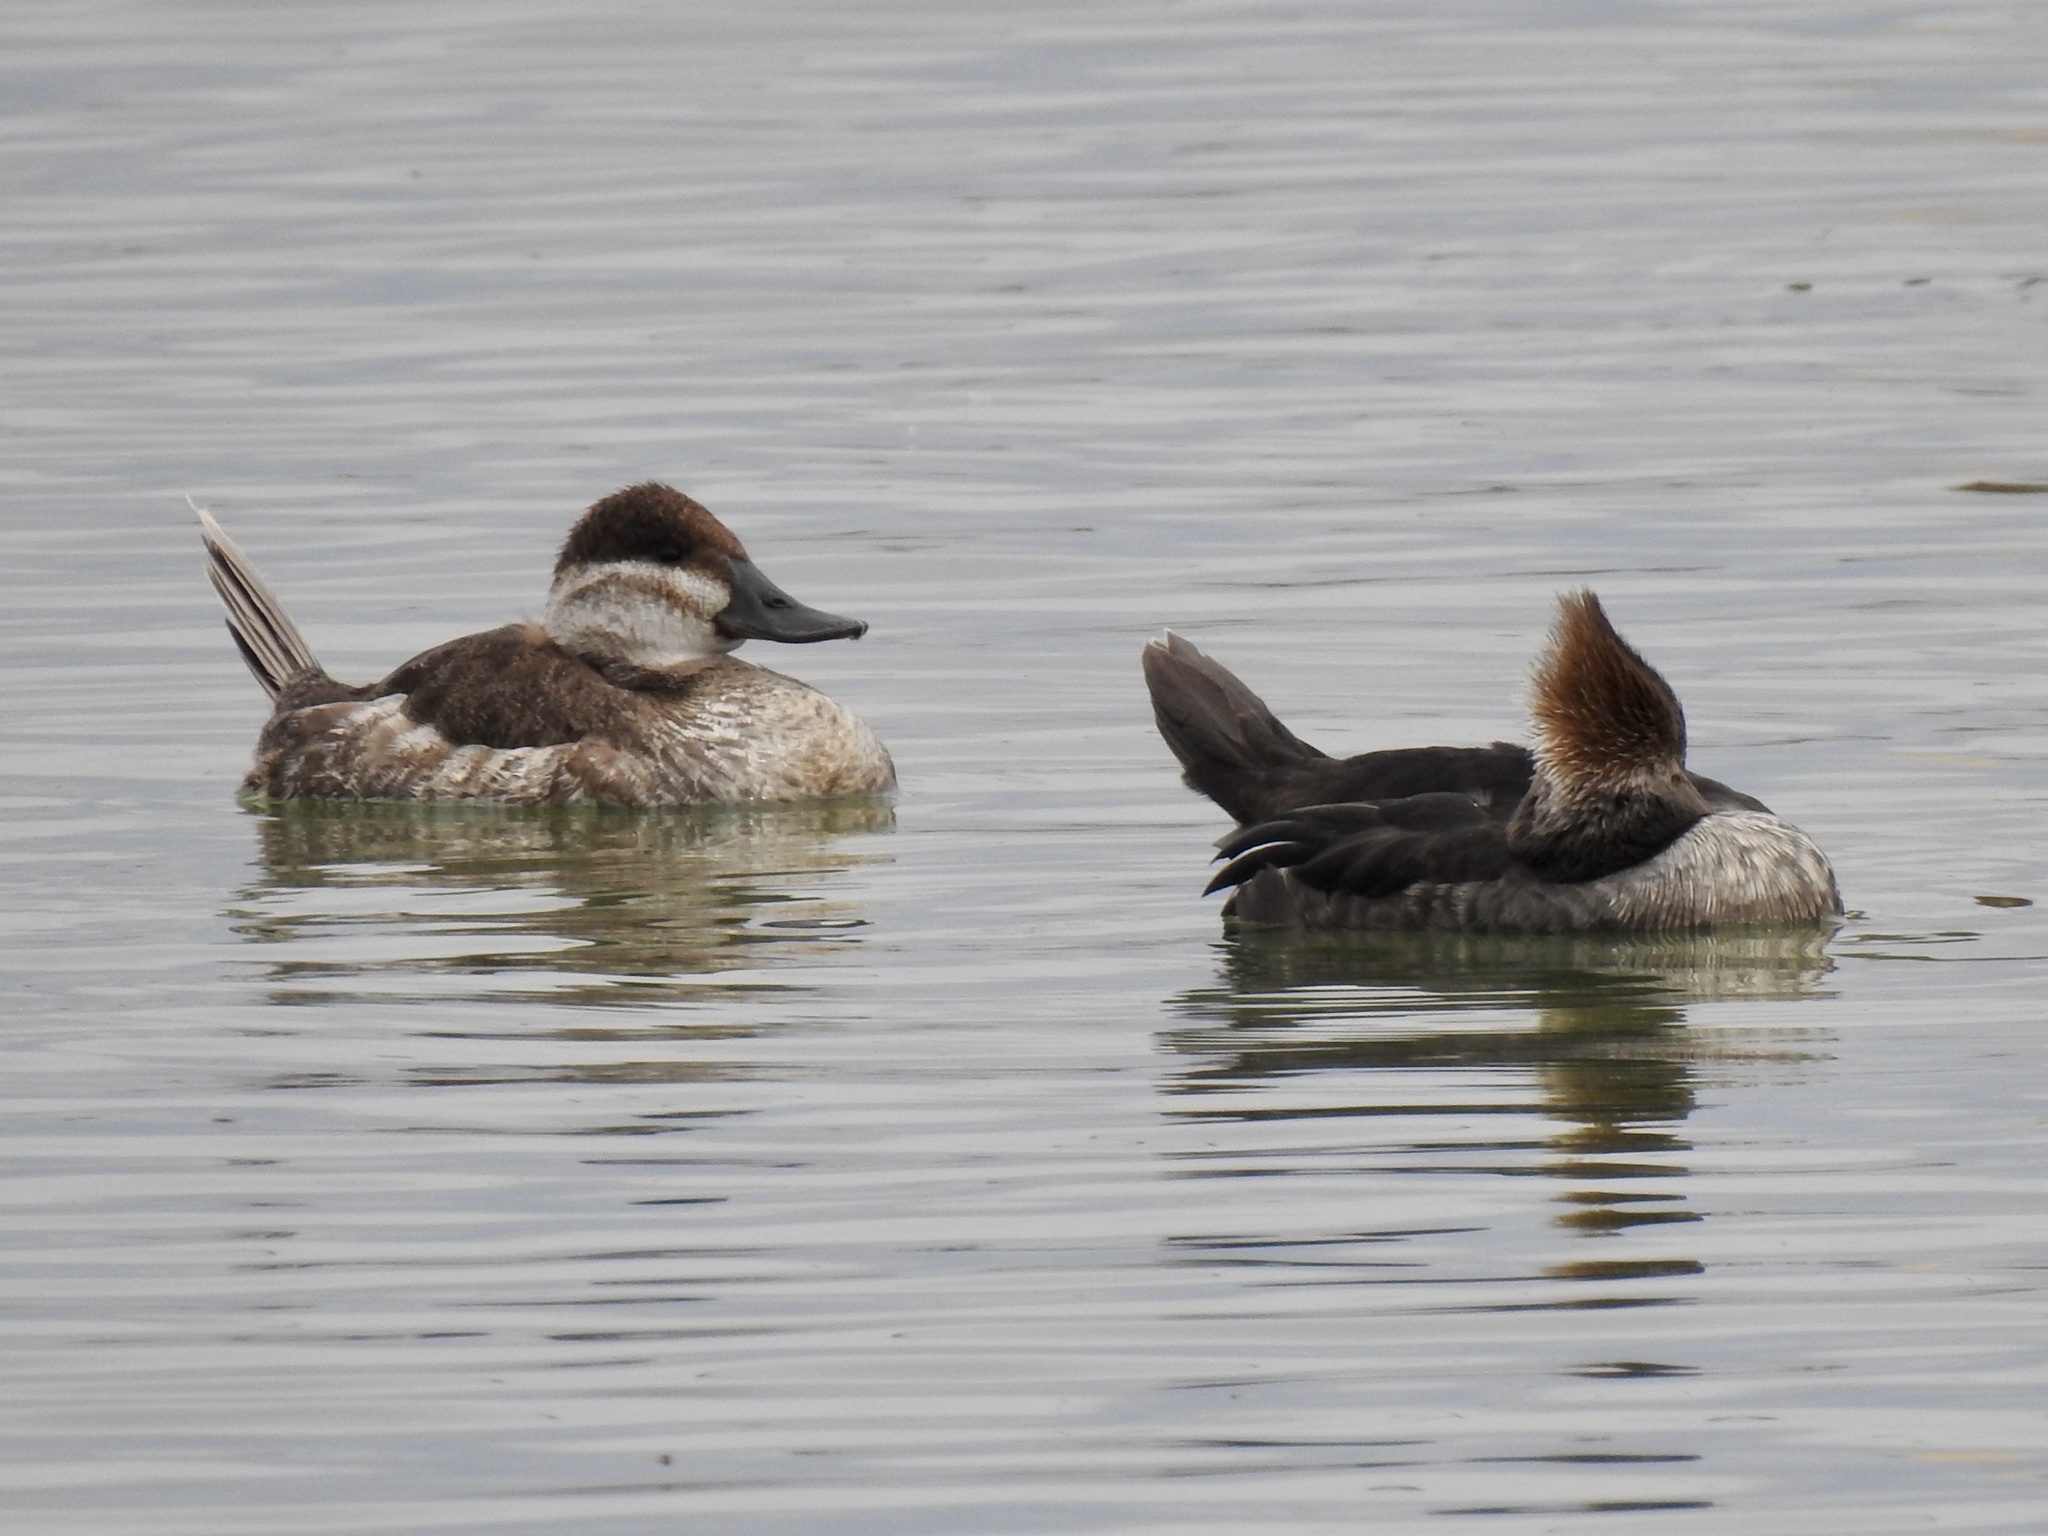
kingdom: Animalia
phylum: Chordata
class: Aves
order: Anseriformes
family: Anatidae
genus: Oxyura
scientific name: Oxyura jamaicensis
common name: Ruddy duck
